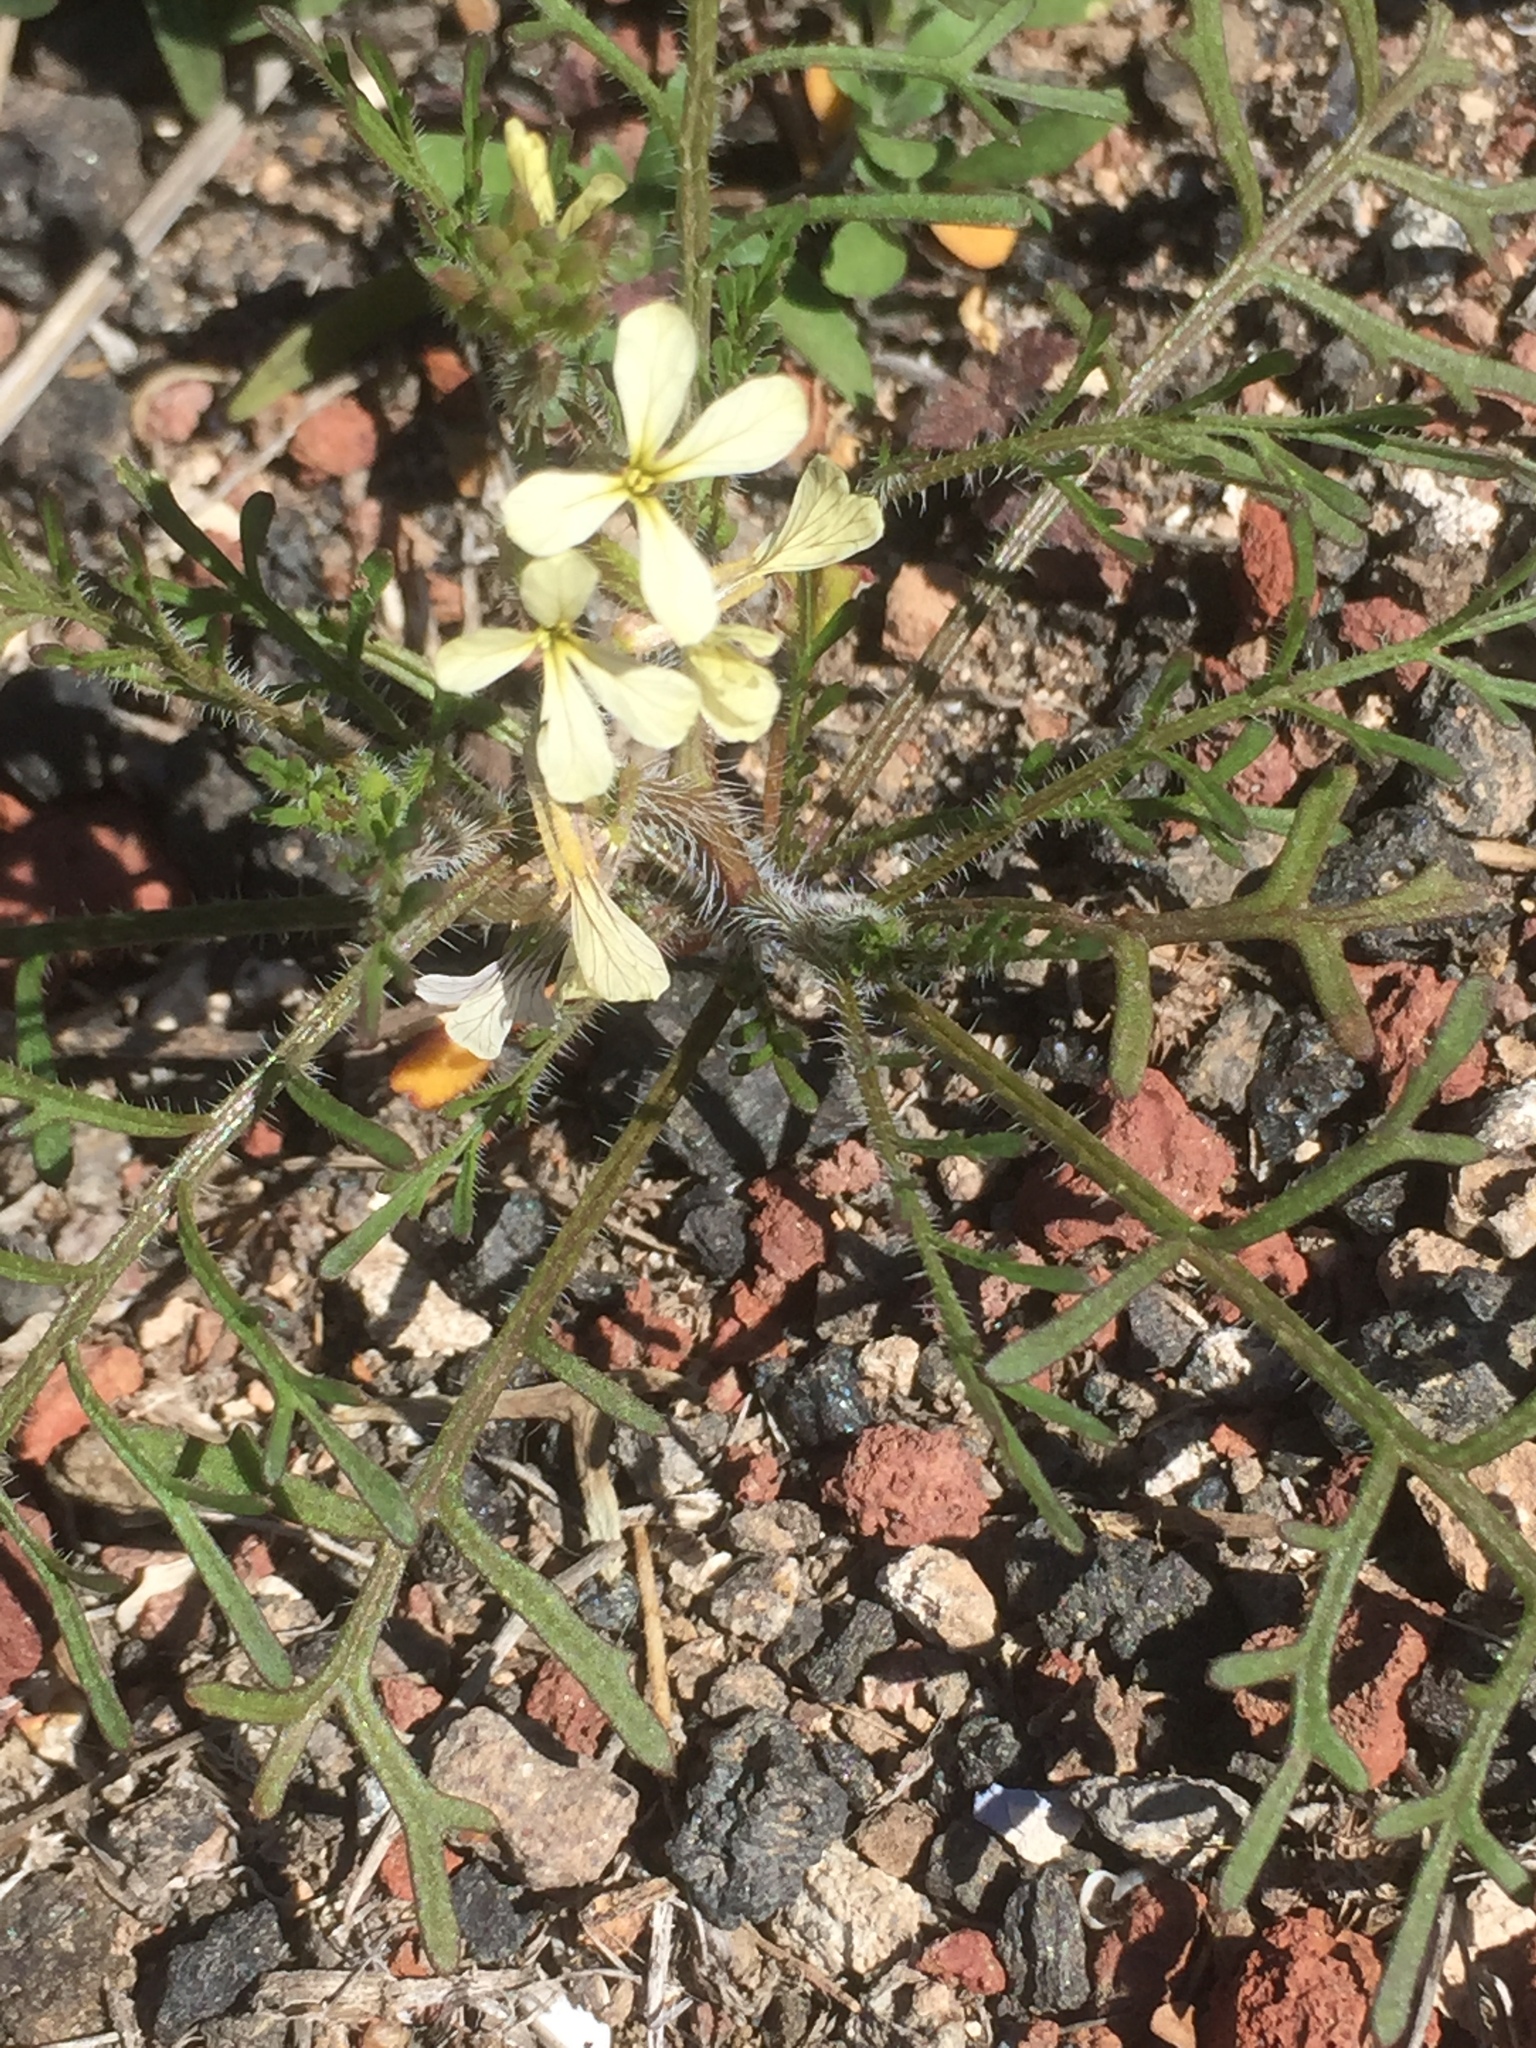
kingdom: Plantae
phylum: Tracheophyta
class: Magnoliopsida
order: Brassicales
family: Brassicaceae
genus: Carrichtera
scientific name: Carrichtera annua
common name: Cress rocket
